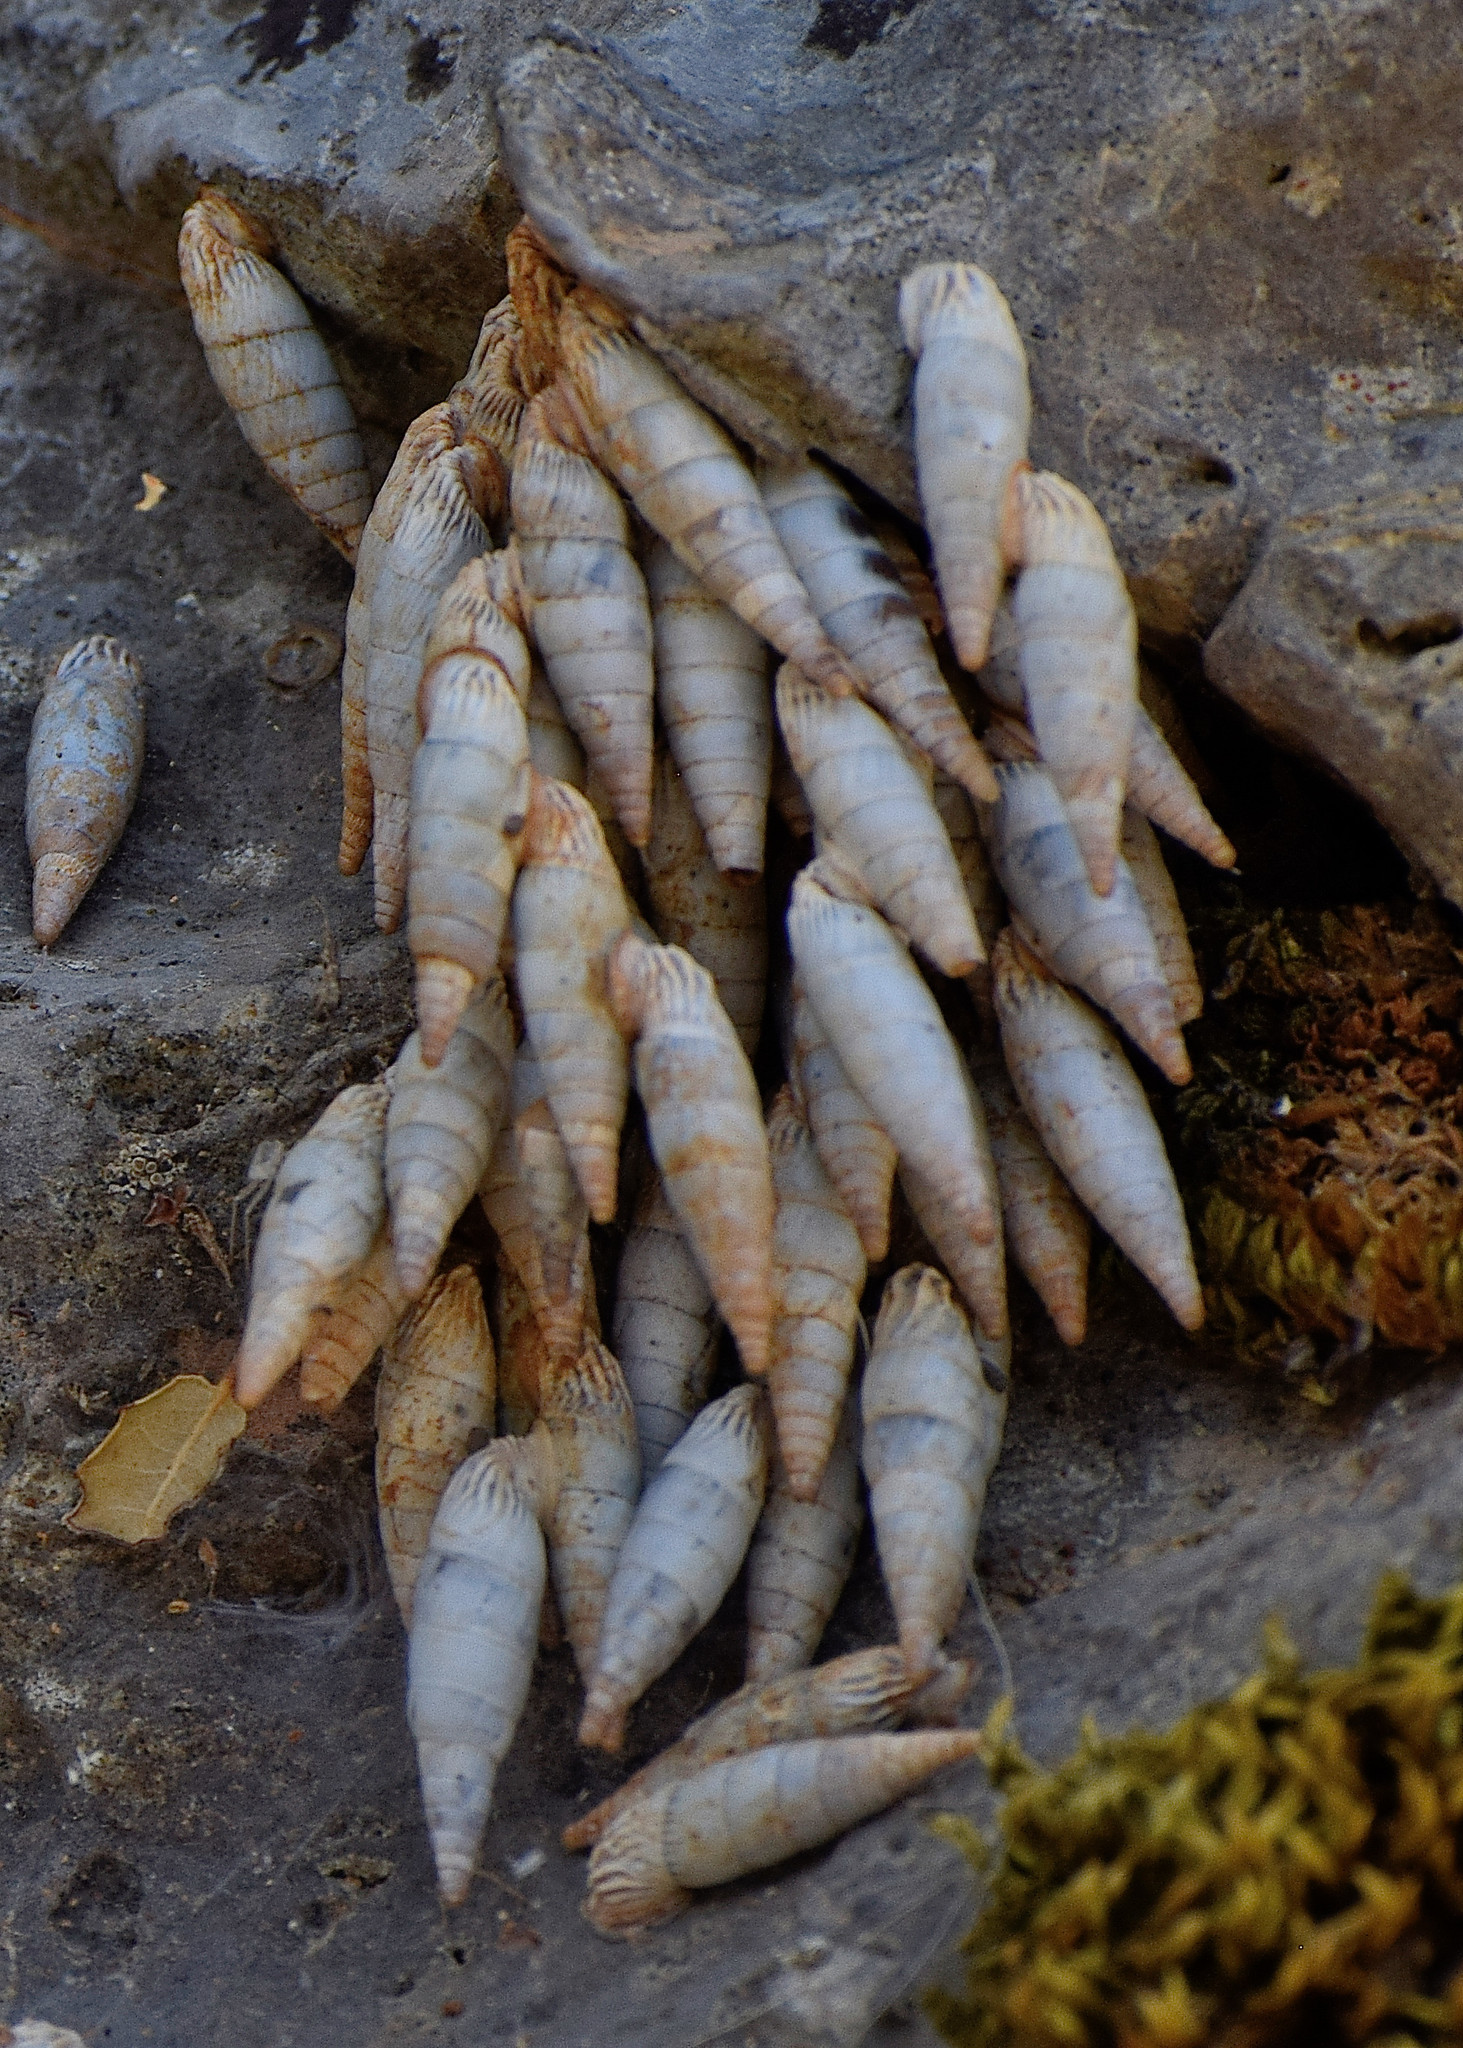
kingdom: Animalia
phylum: Mollusca
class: Gastropoda
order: Stylommatophora
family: Clausiliidae
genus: Albinaria
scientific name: Albinaria corrugata
